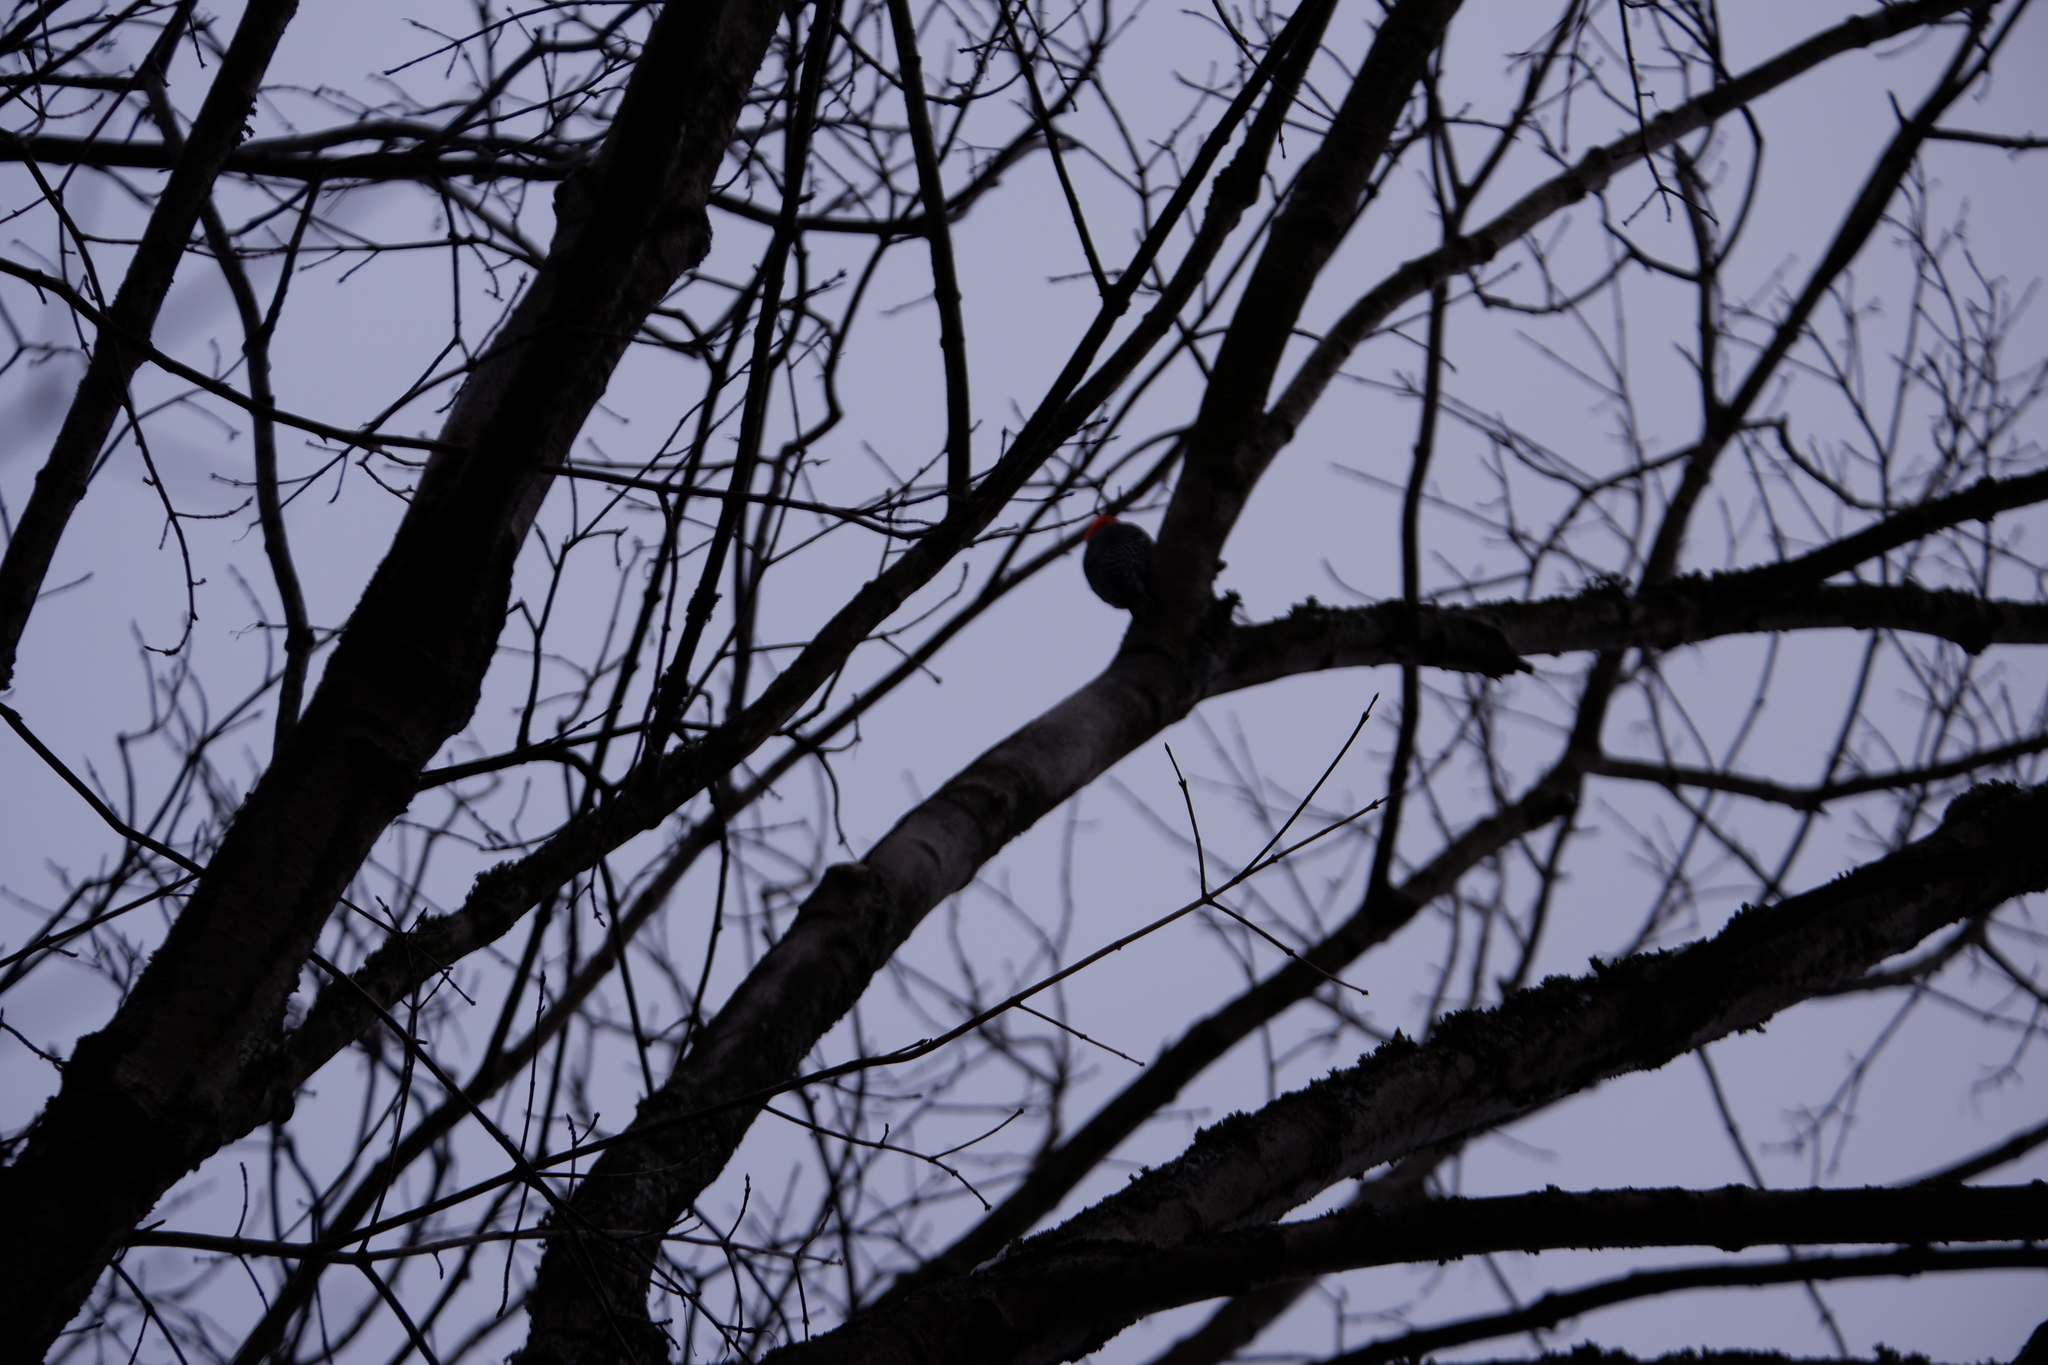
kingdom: Animalia
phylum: Chordata
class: Aves
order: Piciformes
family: Picidae
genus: Melanerpes
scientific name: Melanerpes carolinus
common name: Red-bellied woodpecker
